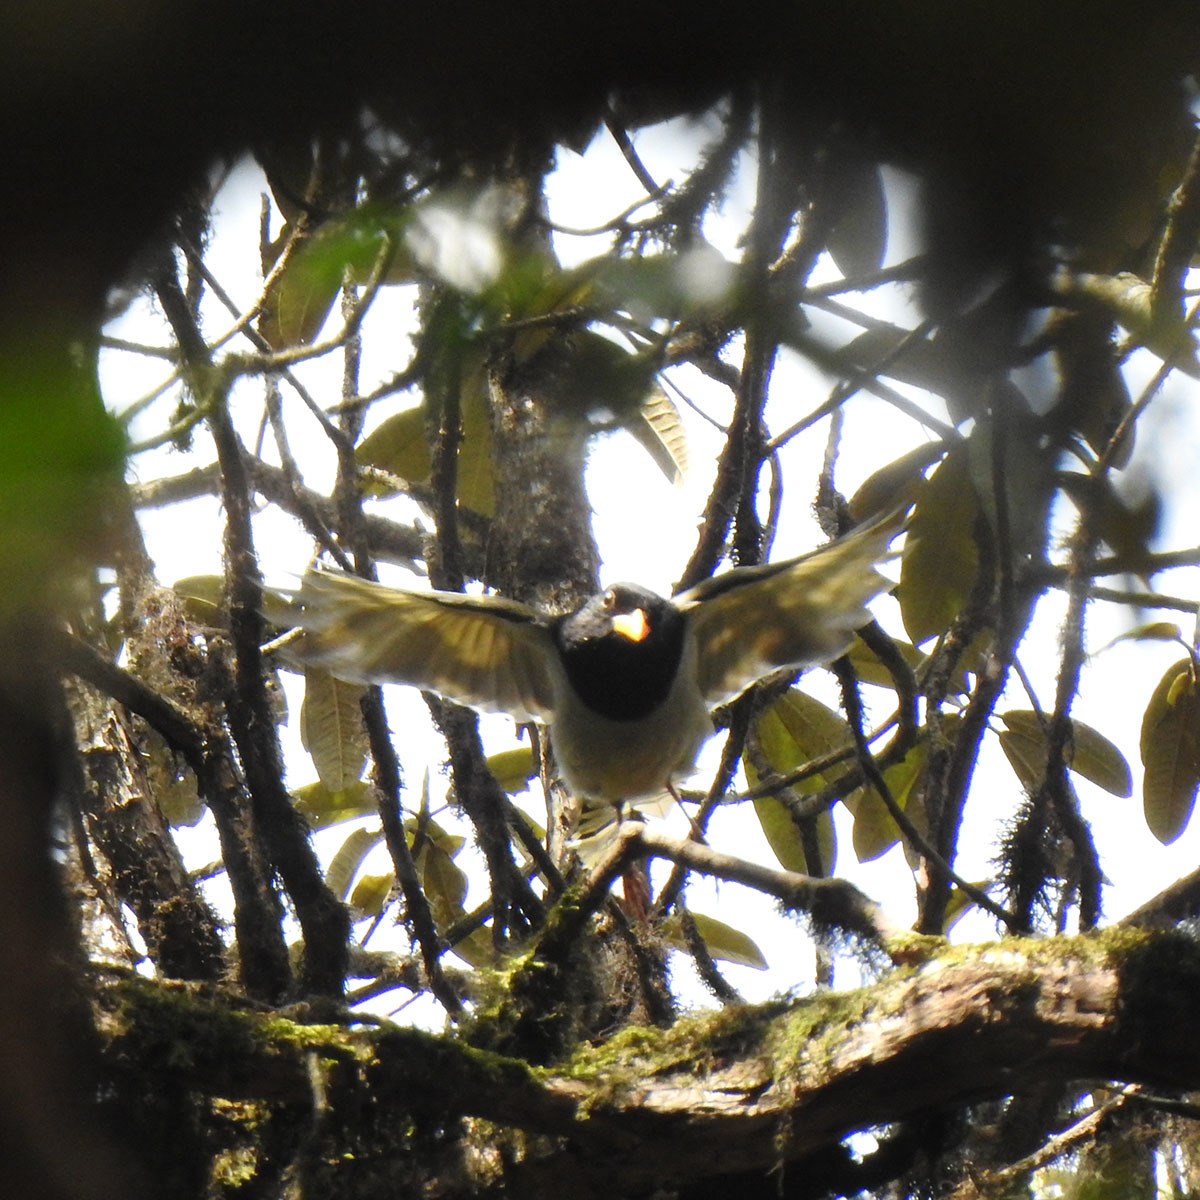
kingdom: Animalia
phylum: Chordata
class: Aves
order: Passeriformes
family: Corvidae
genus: Urocissa
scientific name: Urocissa flavirostris
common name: Yellow-billed blue magpie
